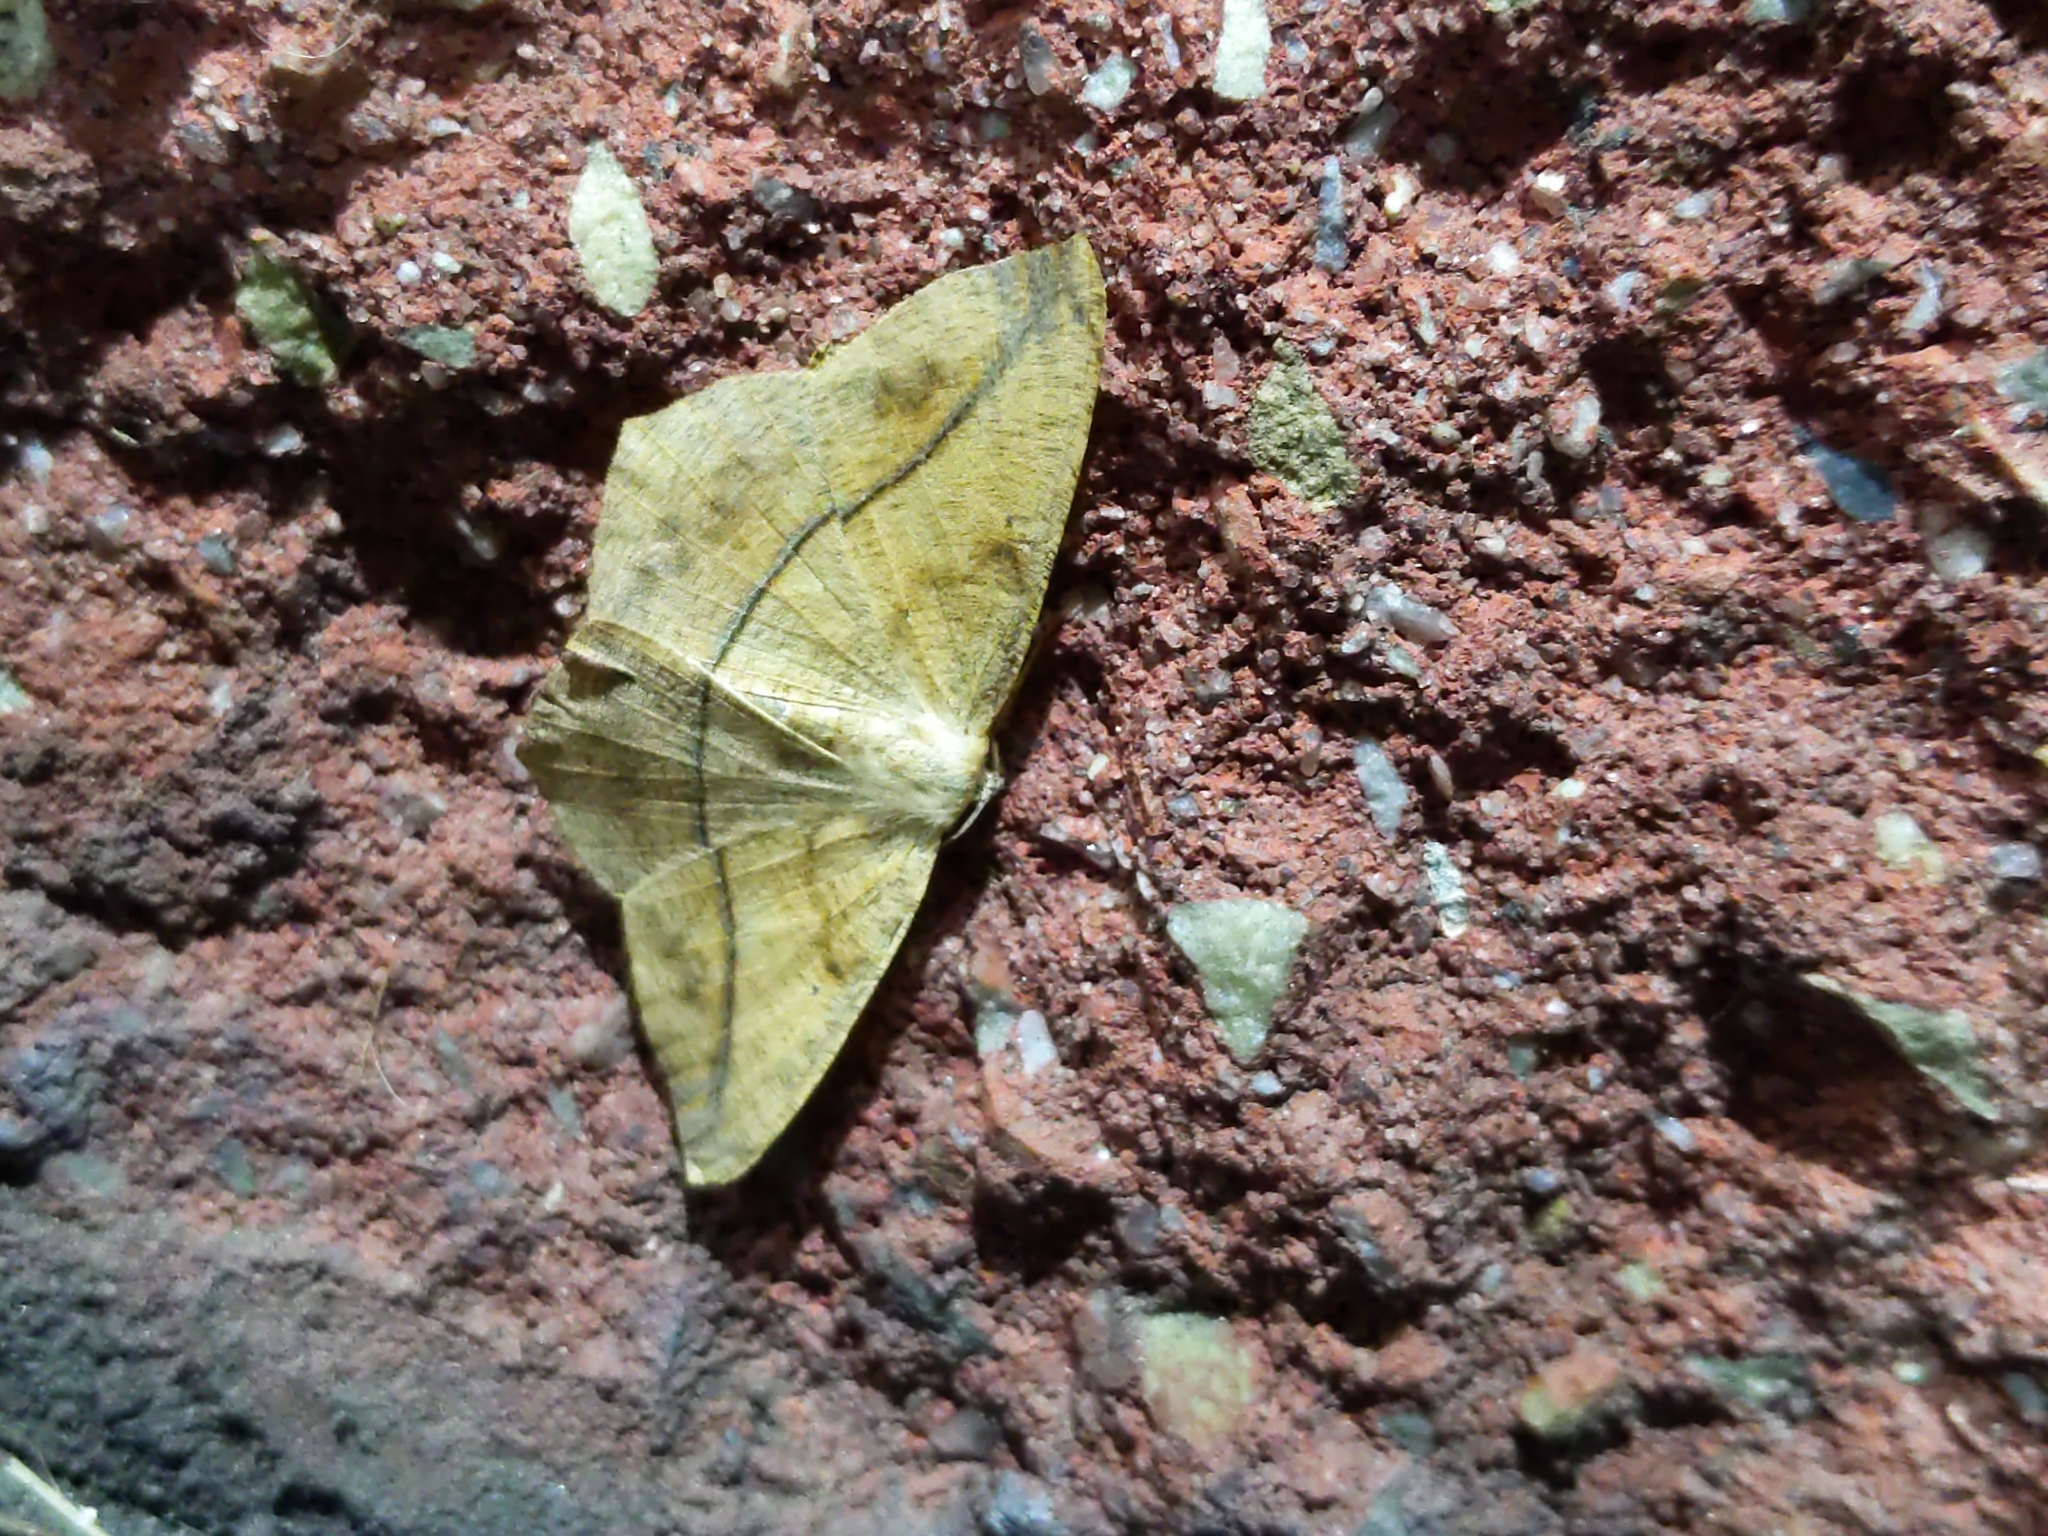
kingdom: Animalia
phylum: Arthropoda
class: Insecta
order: Lepidoptera
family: Geometridae
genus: Prochoerodes
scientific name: Prochoerodes lineola
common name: Large maple spanworm
